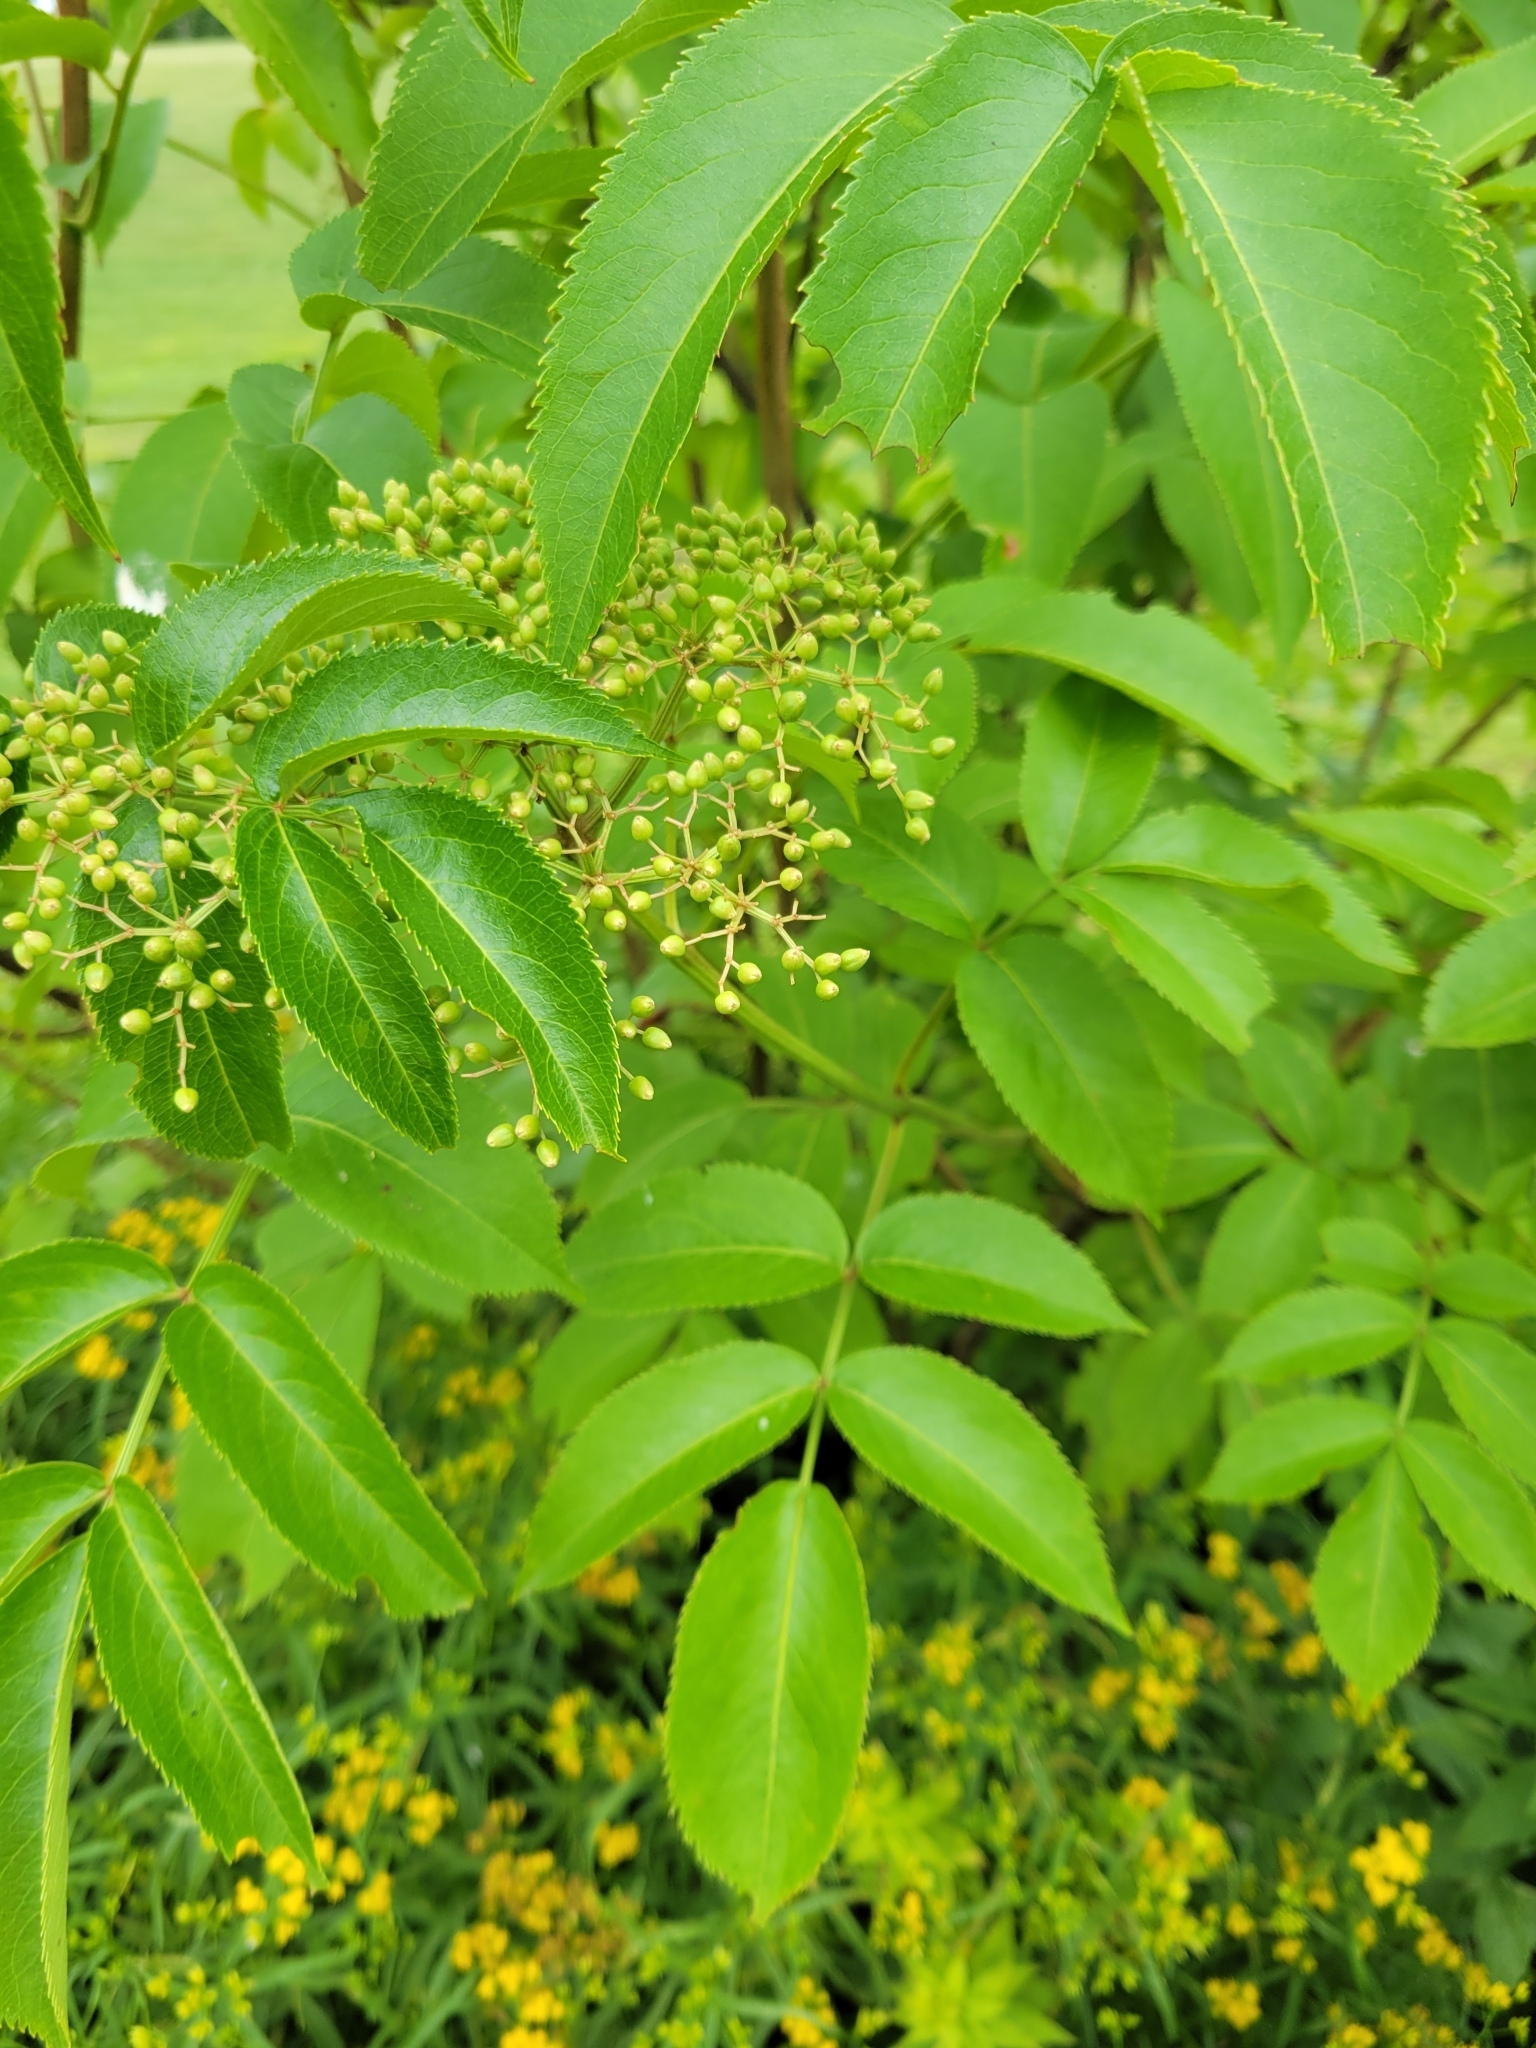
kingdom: Plantae
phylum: Tracheophyta
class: Magnoliopsida
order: Dipsacales
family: Viburnaceae
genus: Sambucus
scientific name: Sambucus canadensis
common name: American elder
